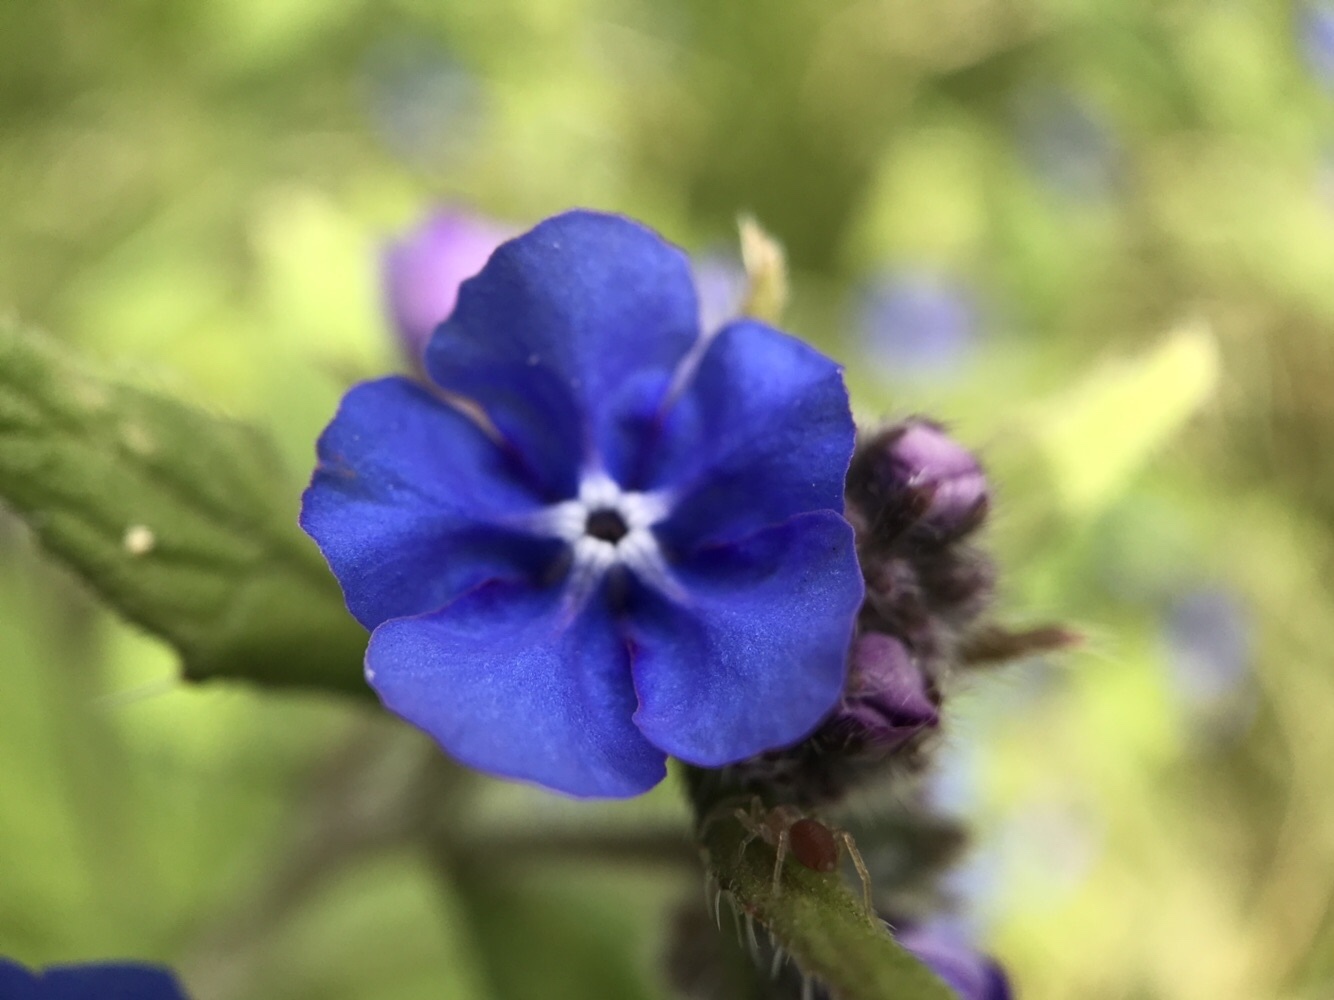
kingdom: Plantae
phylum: Tracheophyta
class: Magnoliopsida
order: Boraginales
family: Boraginaceae
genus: Pentaglottis
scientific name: Pentaglottis sempervirens
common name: Green alkanet
